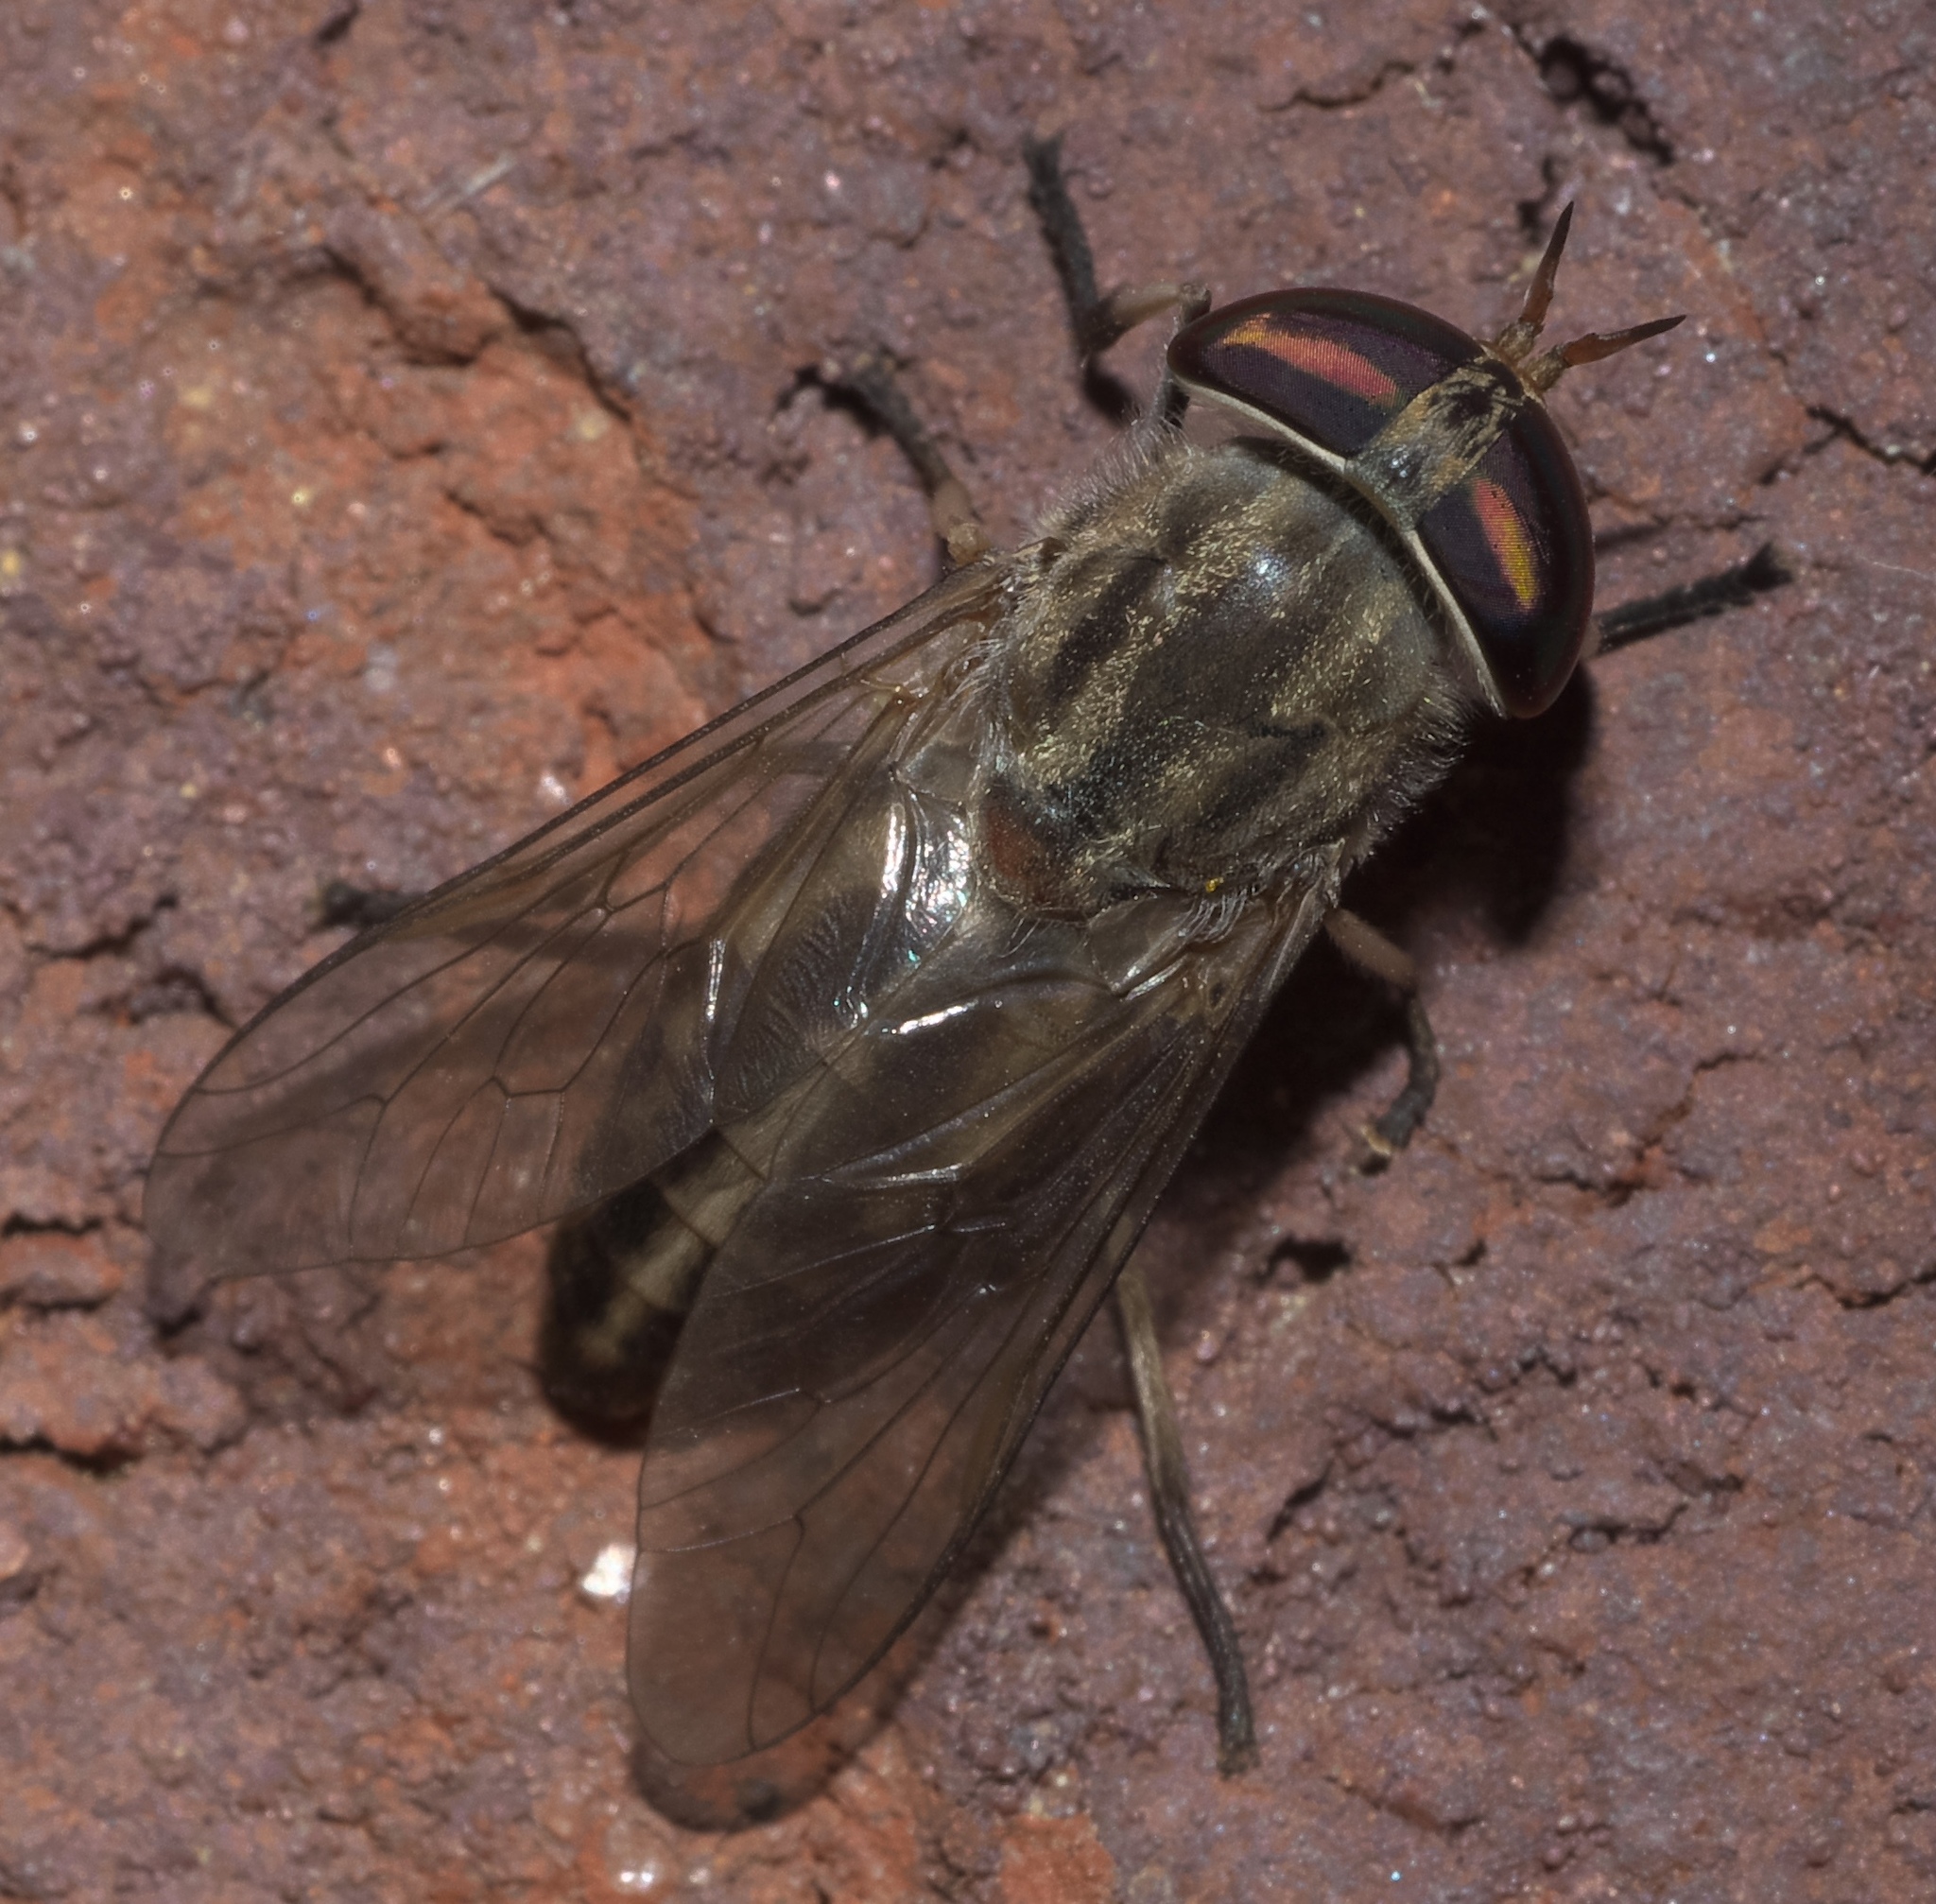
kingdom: Animalia
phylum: Arthropoda
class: Insecta
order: Diptera
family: Tabanidae
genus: Tabanus
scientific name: Tabanus subsimilis
